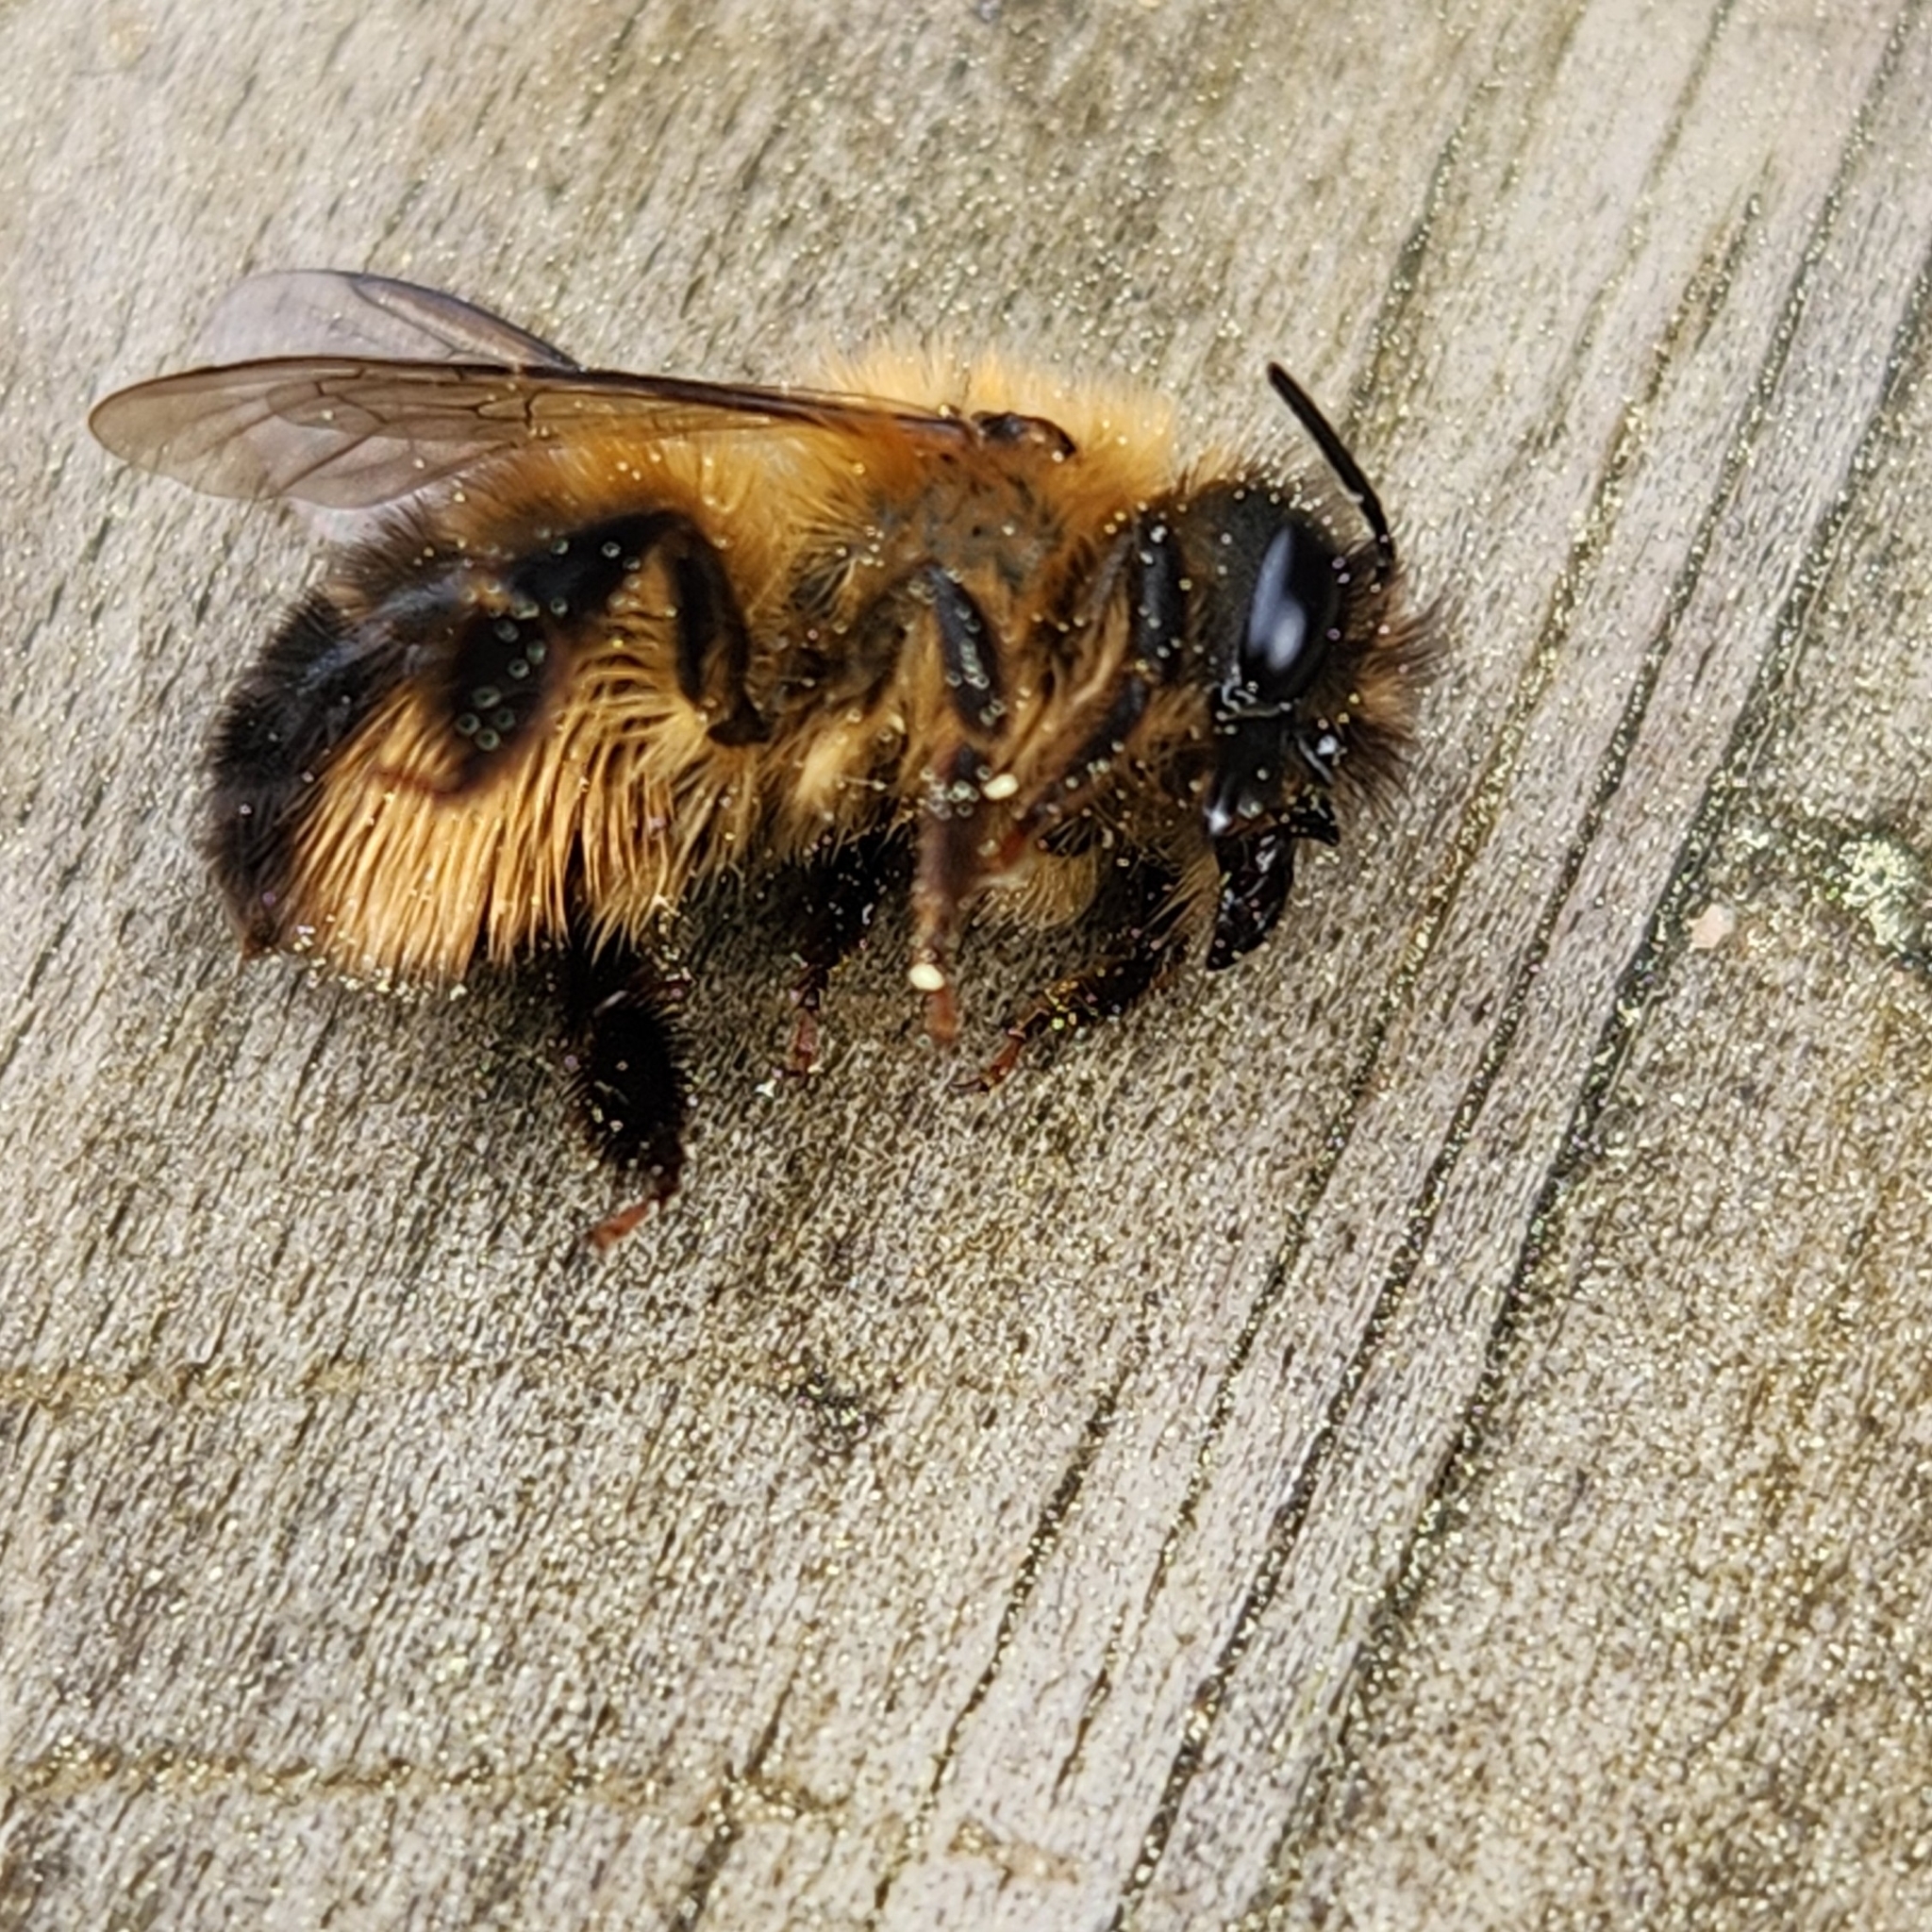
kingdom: Animalia
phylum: Arthropoda
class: Insecta
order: Hymenoptera
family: Megachilidae
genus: Osmia
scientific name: Osmia taurus
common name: Taurus mason bee
